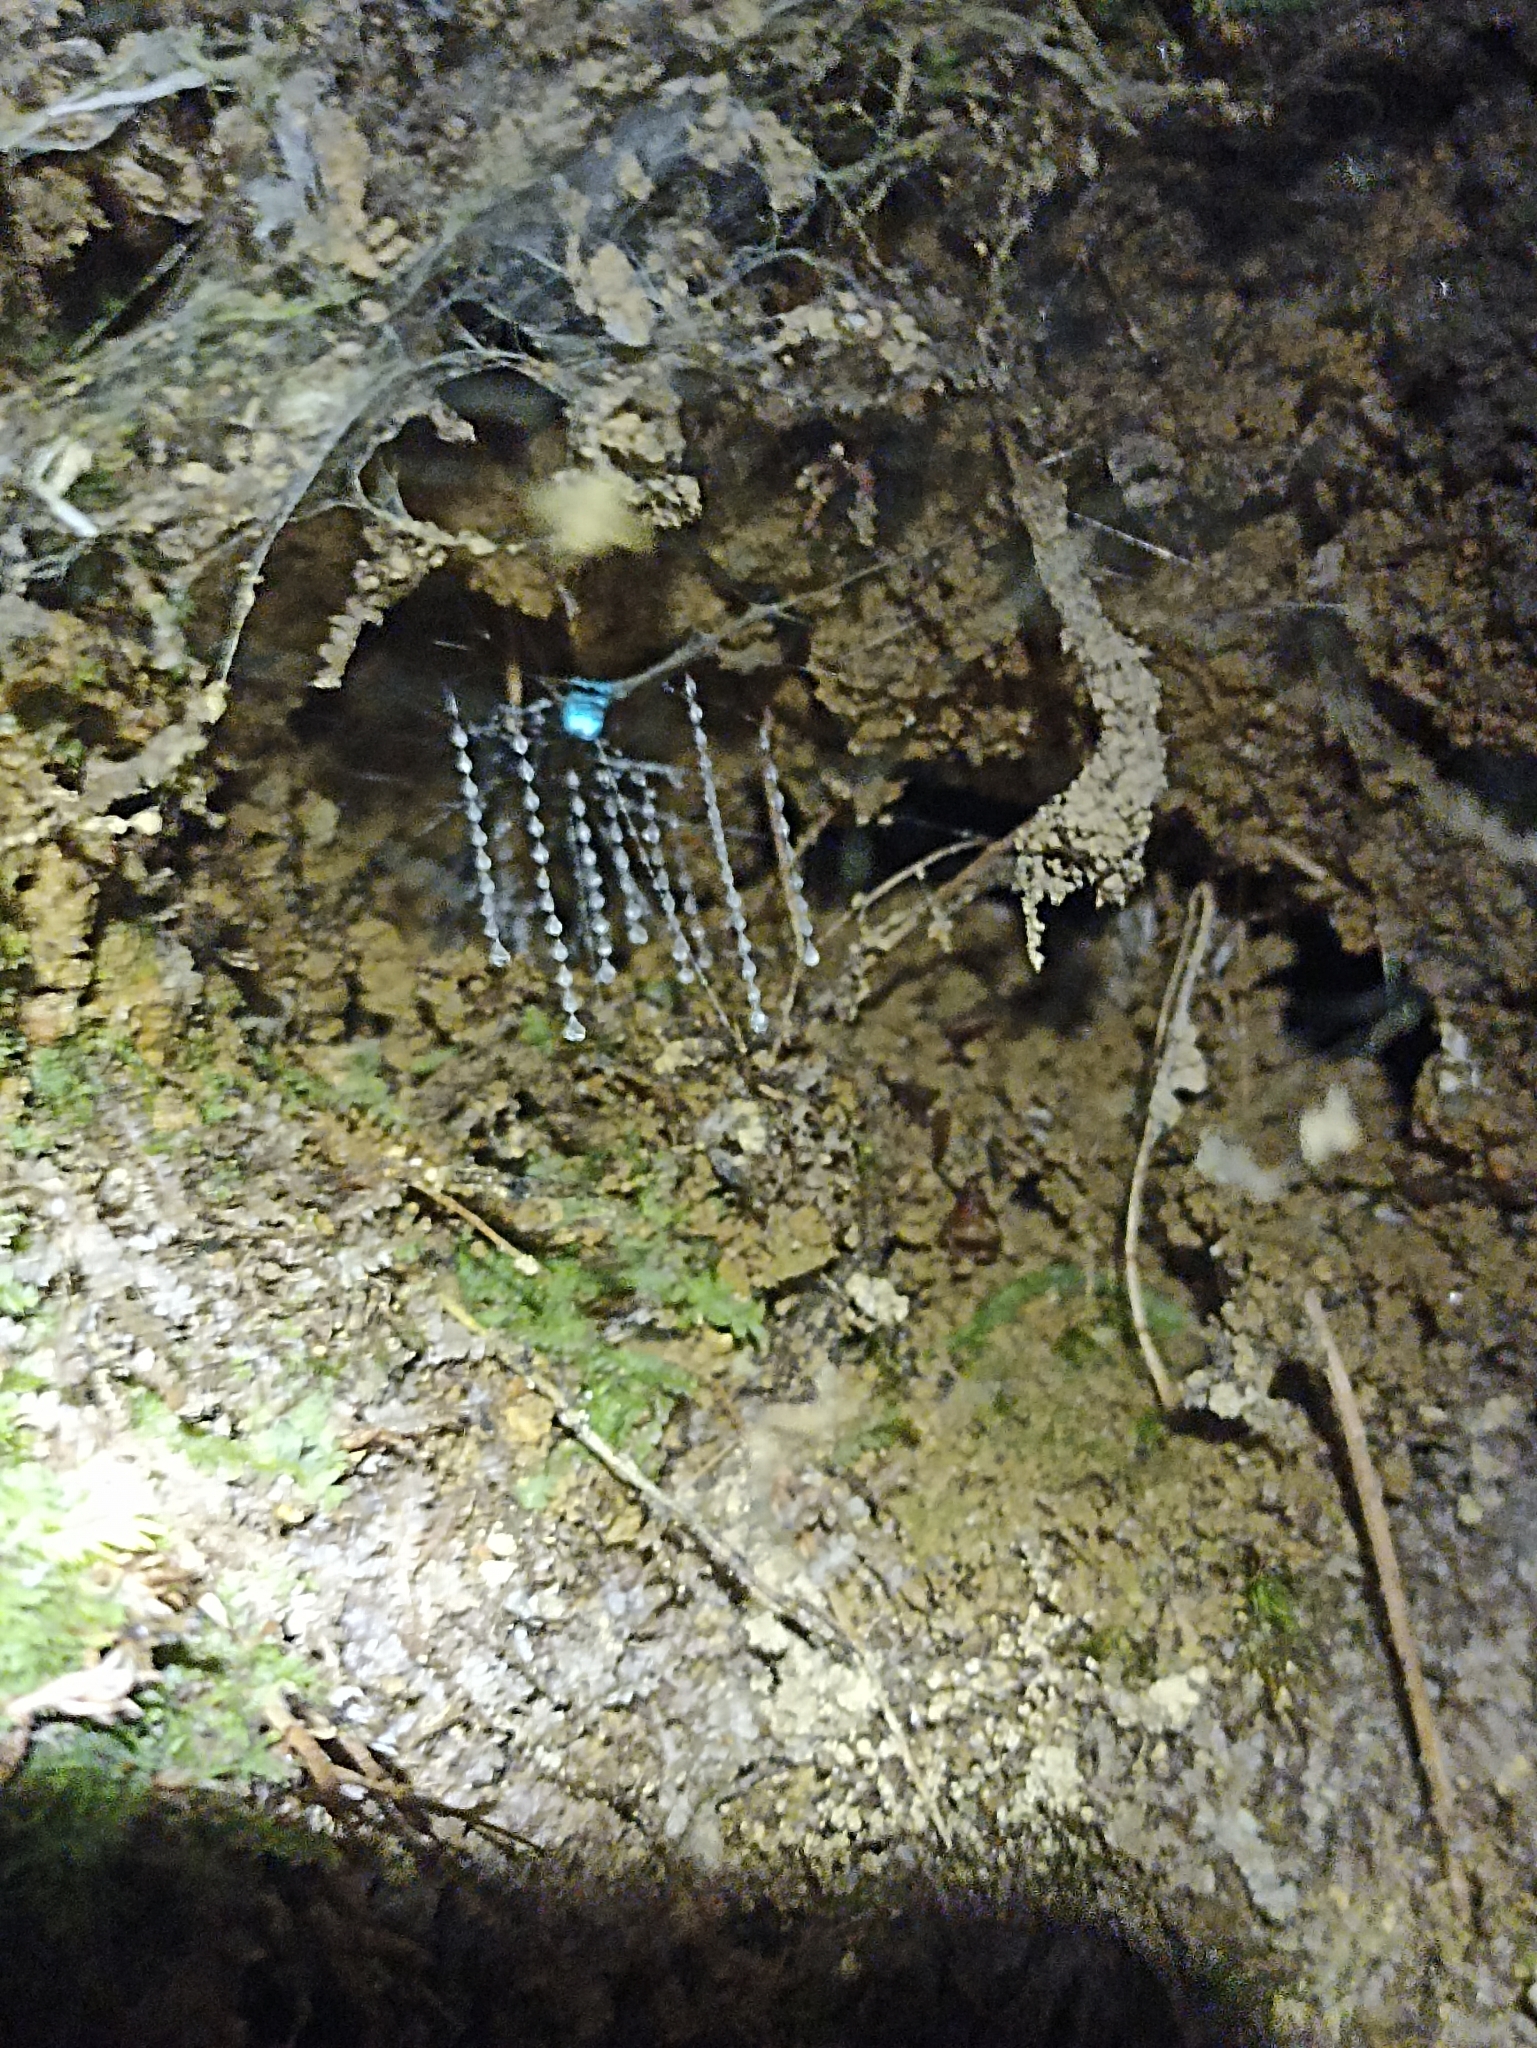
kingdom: Animalia
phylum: Arthropoda
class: Insecta
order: Diptera
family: Keroplatidae
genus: Arachnocampa
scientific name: Arachnocampa luminosa
